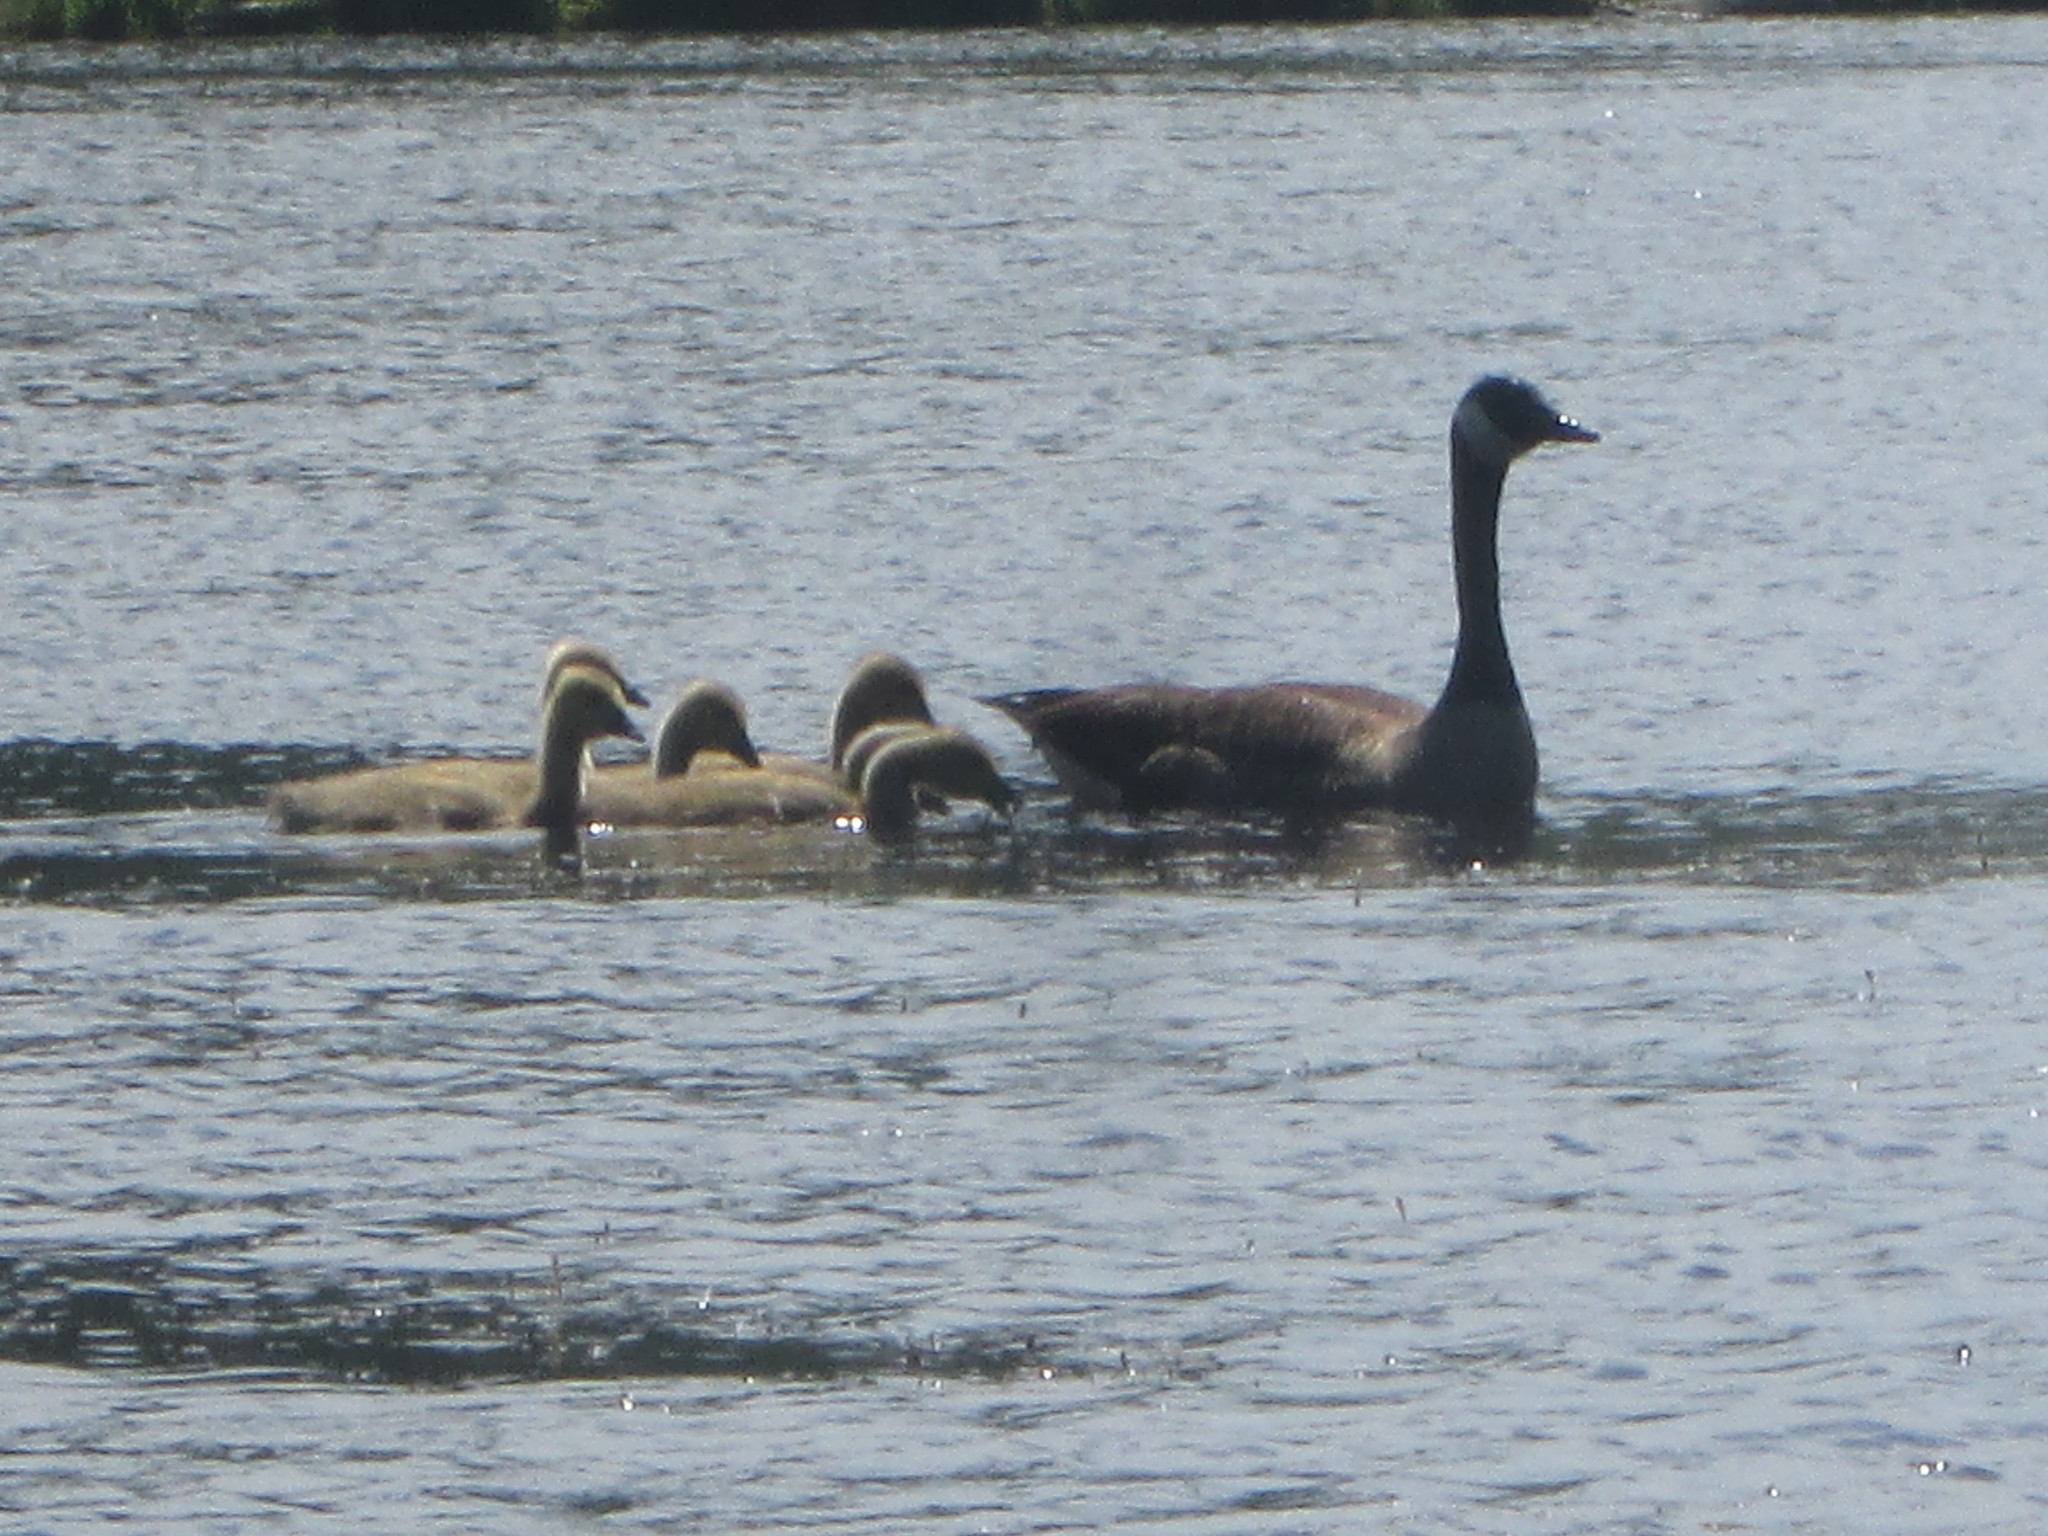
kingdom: Animalia
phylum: Chordata
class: Aves
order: Anseriformes
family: Anatidae
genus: Branta
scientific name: Branta canadensis
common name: Canada goose
